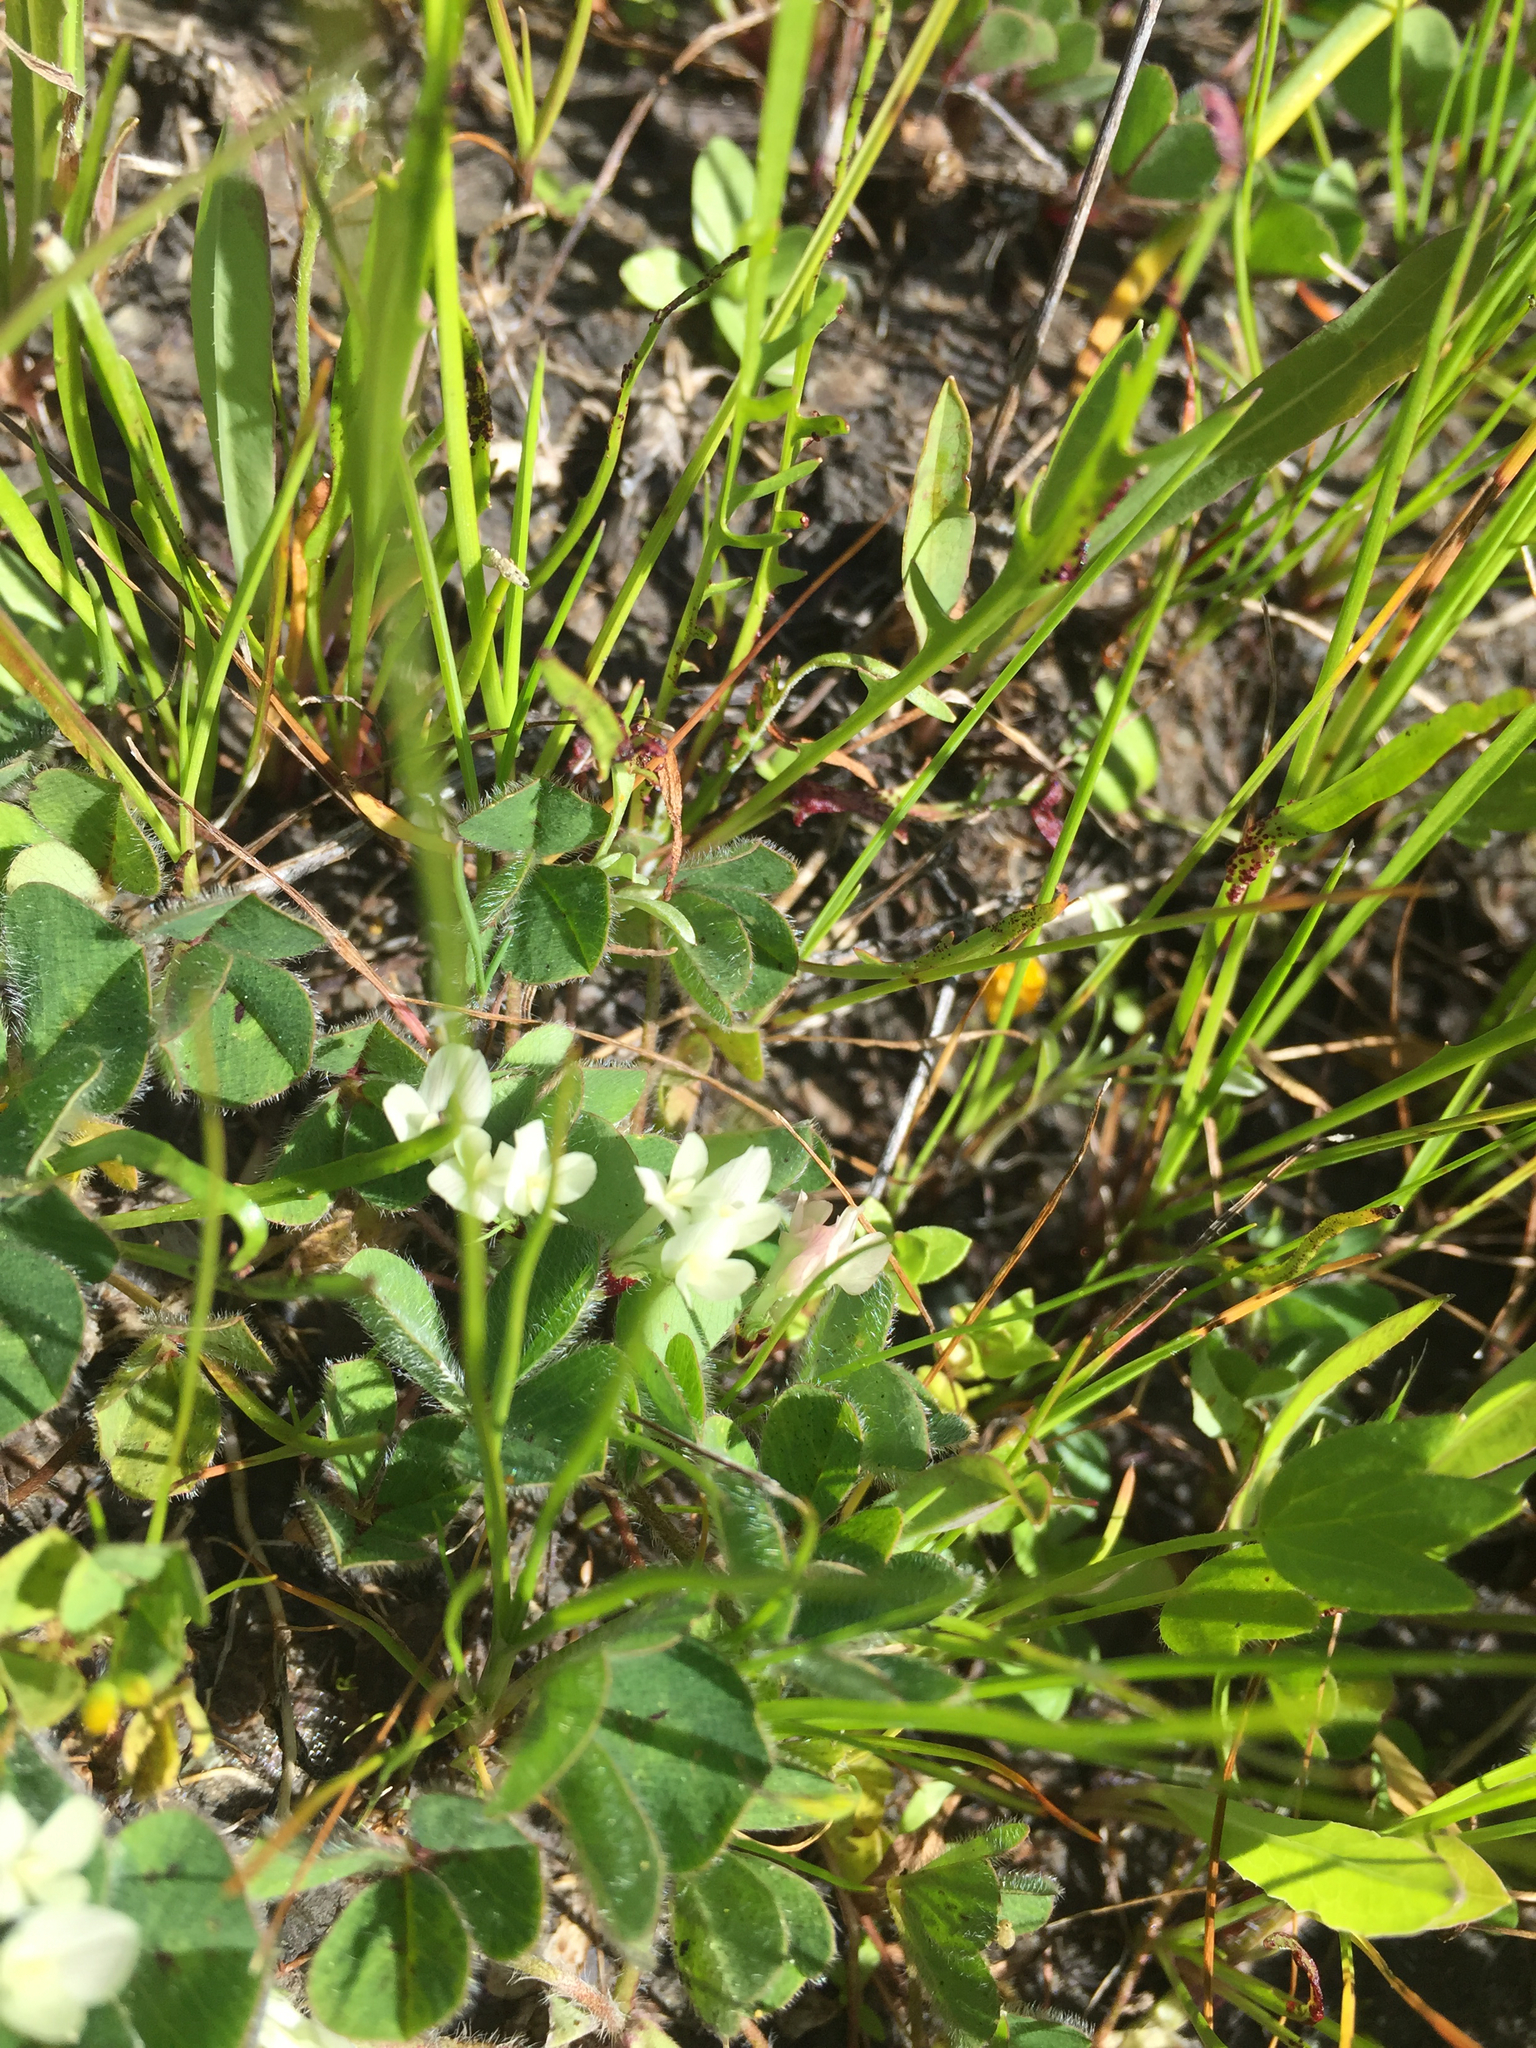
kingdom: Plantae
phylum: Tracheophyta
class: Magnoliopsida
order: Fabales
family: Fabaceae
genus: Trifolium
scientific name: Trifolium subterraneum
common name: Subterranean clover
